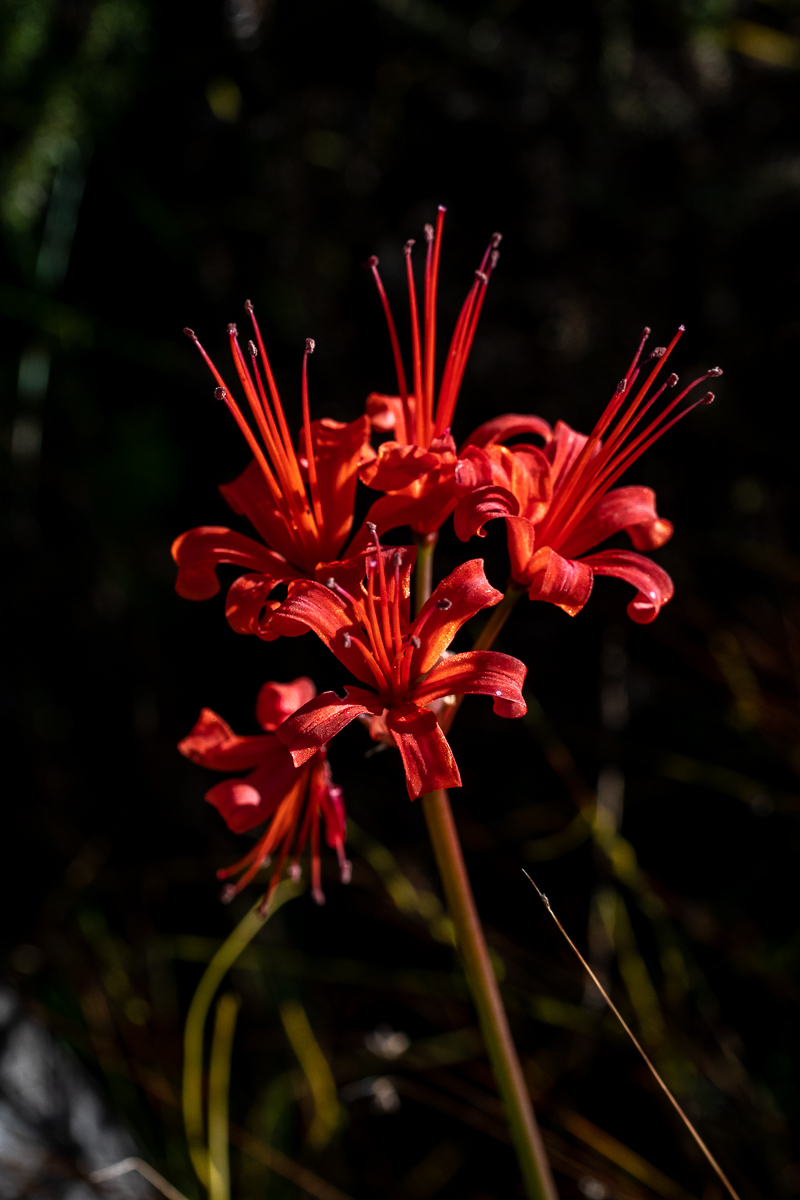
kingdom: Plantae
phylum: Tracheophyta
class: Liliopsida
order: Asparagales
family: Amaryllidaceae
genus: Nerine
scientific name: Nerine sarniensis
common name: Guernsey-lily
